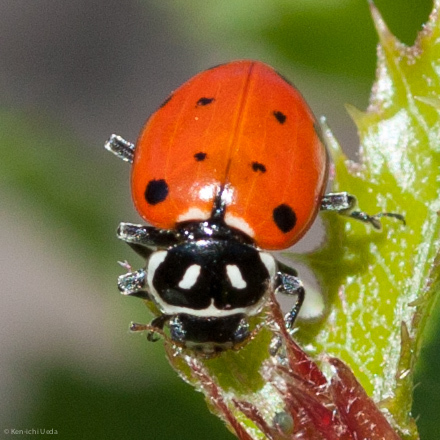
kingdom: Animalia
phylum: Arthropoda
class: Insecta
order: Coleoptera
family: Coccinellidae
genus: Hippodamia
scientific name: Hippodamia convergens
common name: Convergent lady beetle
